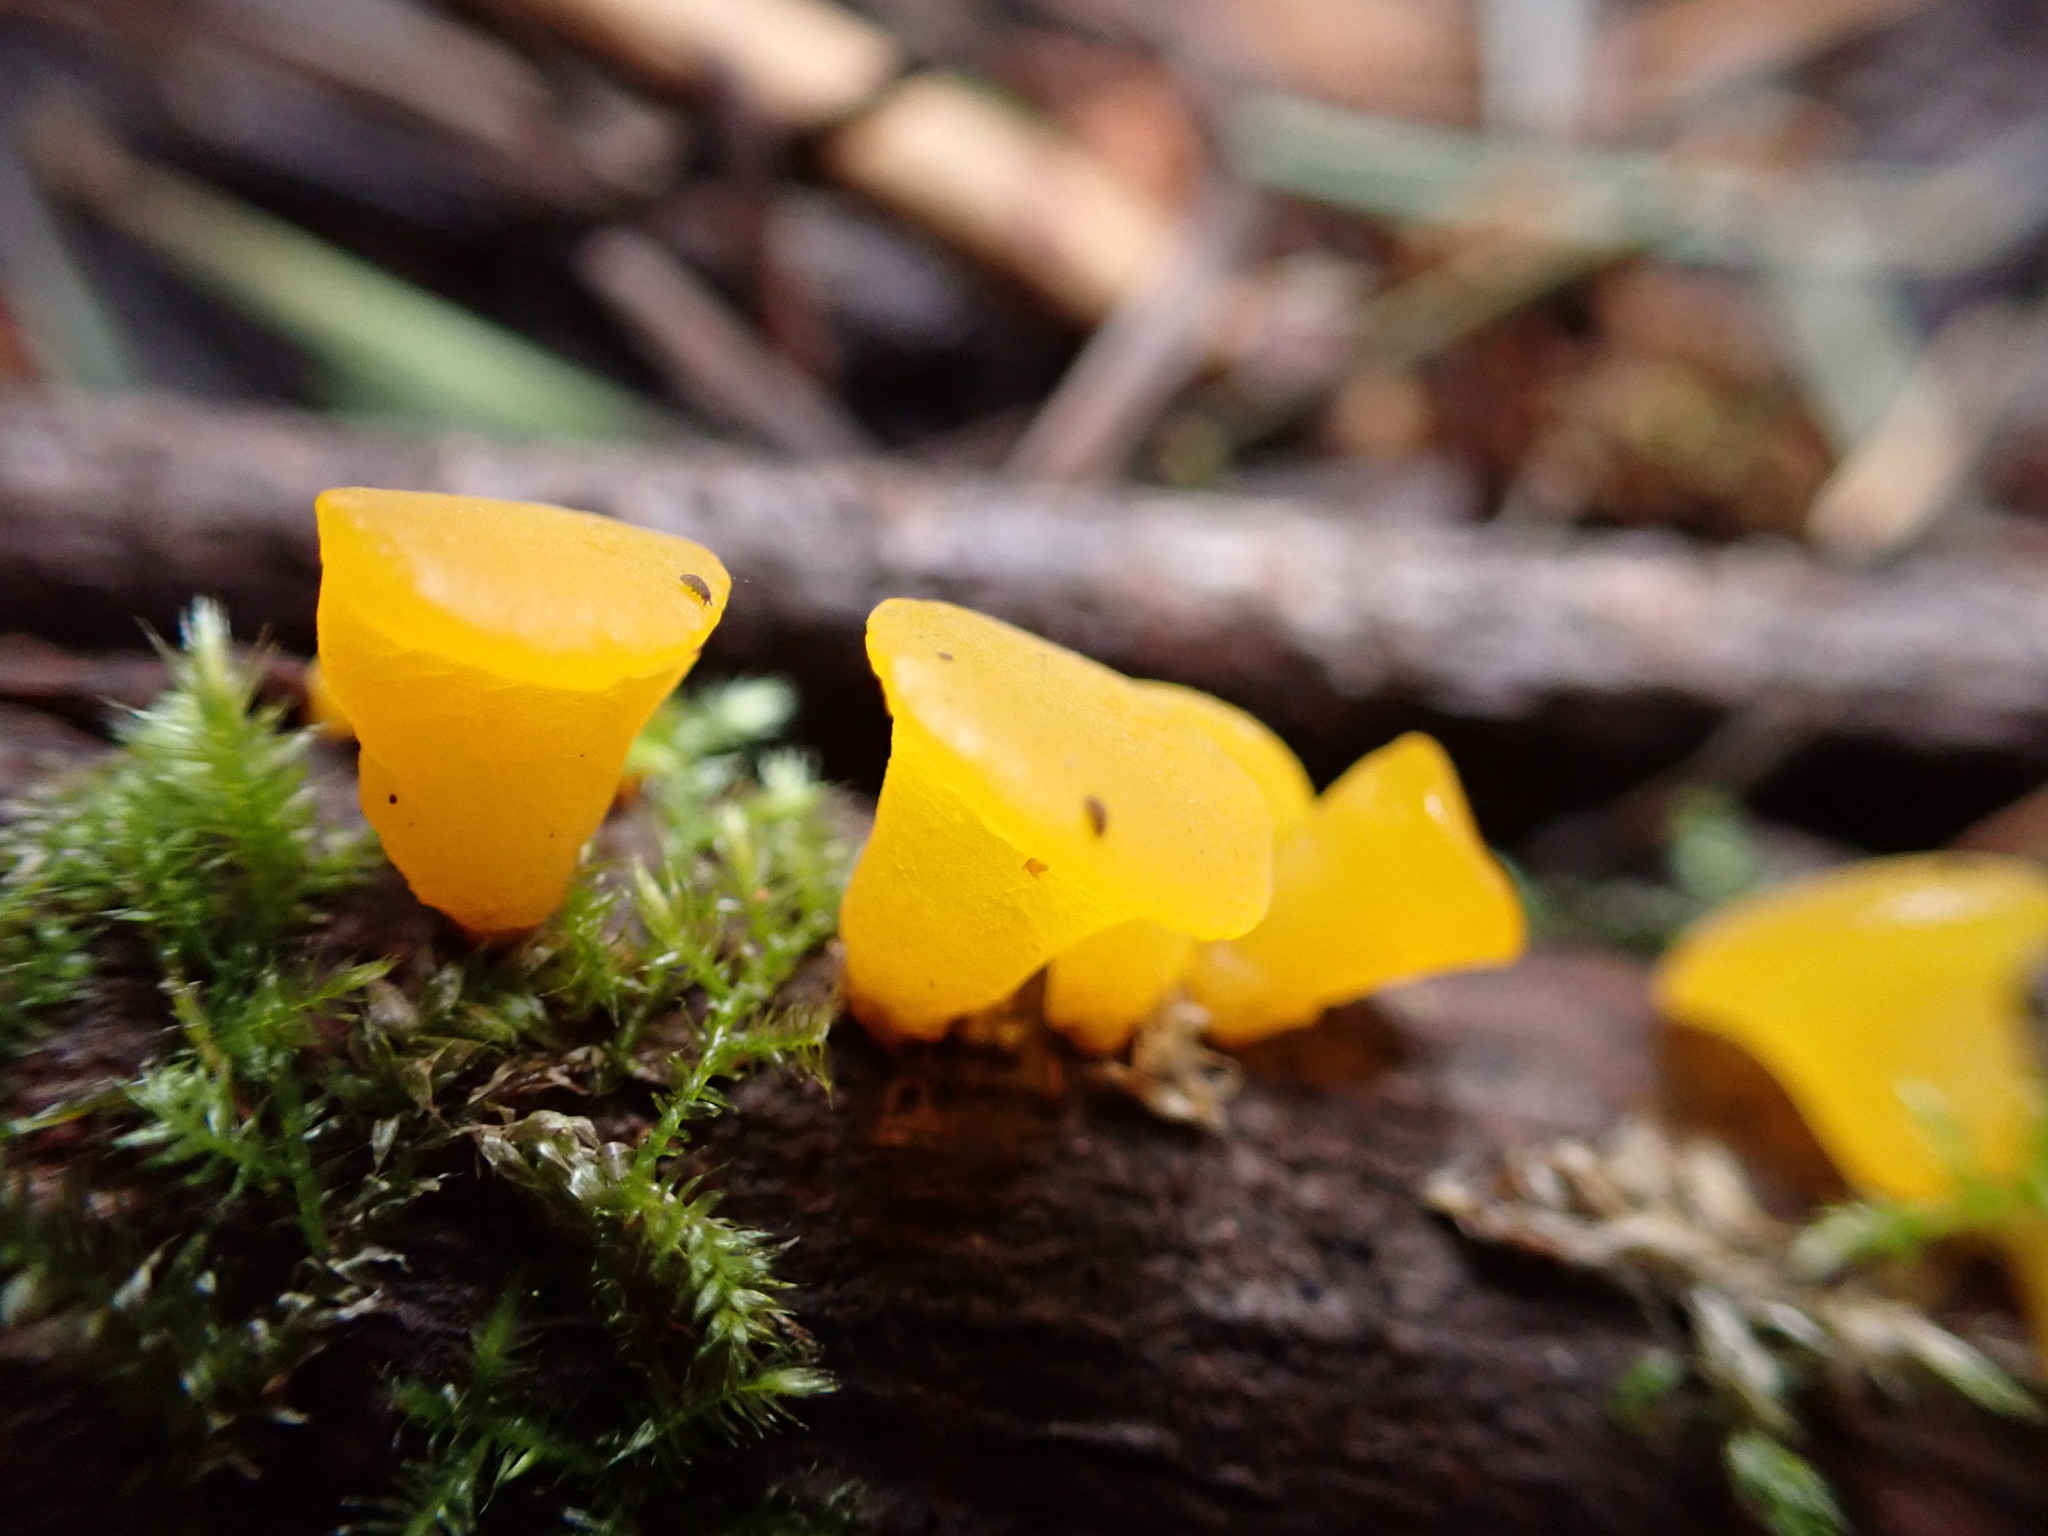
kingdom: Fungi
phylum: Basidiomycota
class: Dacrymycetes
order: Dacrymycetales
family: Dacrymycetaceae
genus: Guepiniopsis
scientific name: Guepiniopsis alpina
